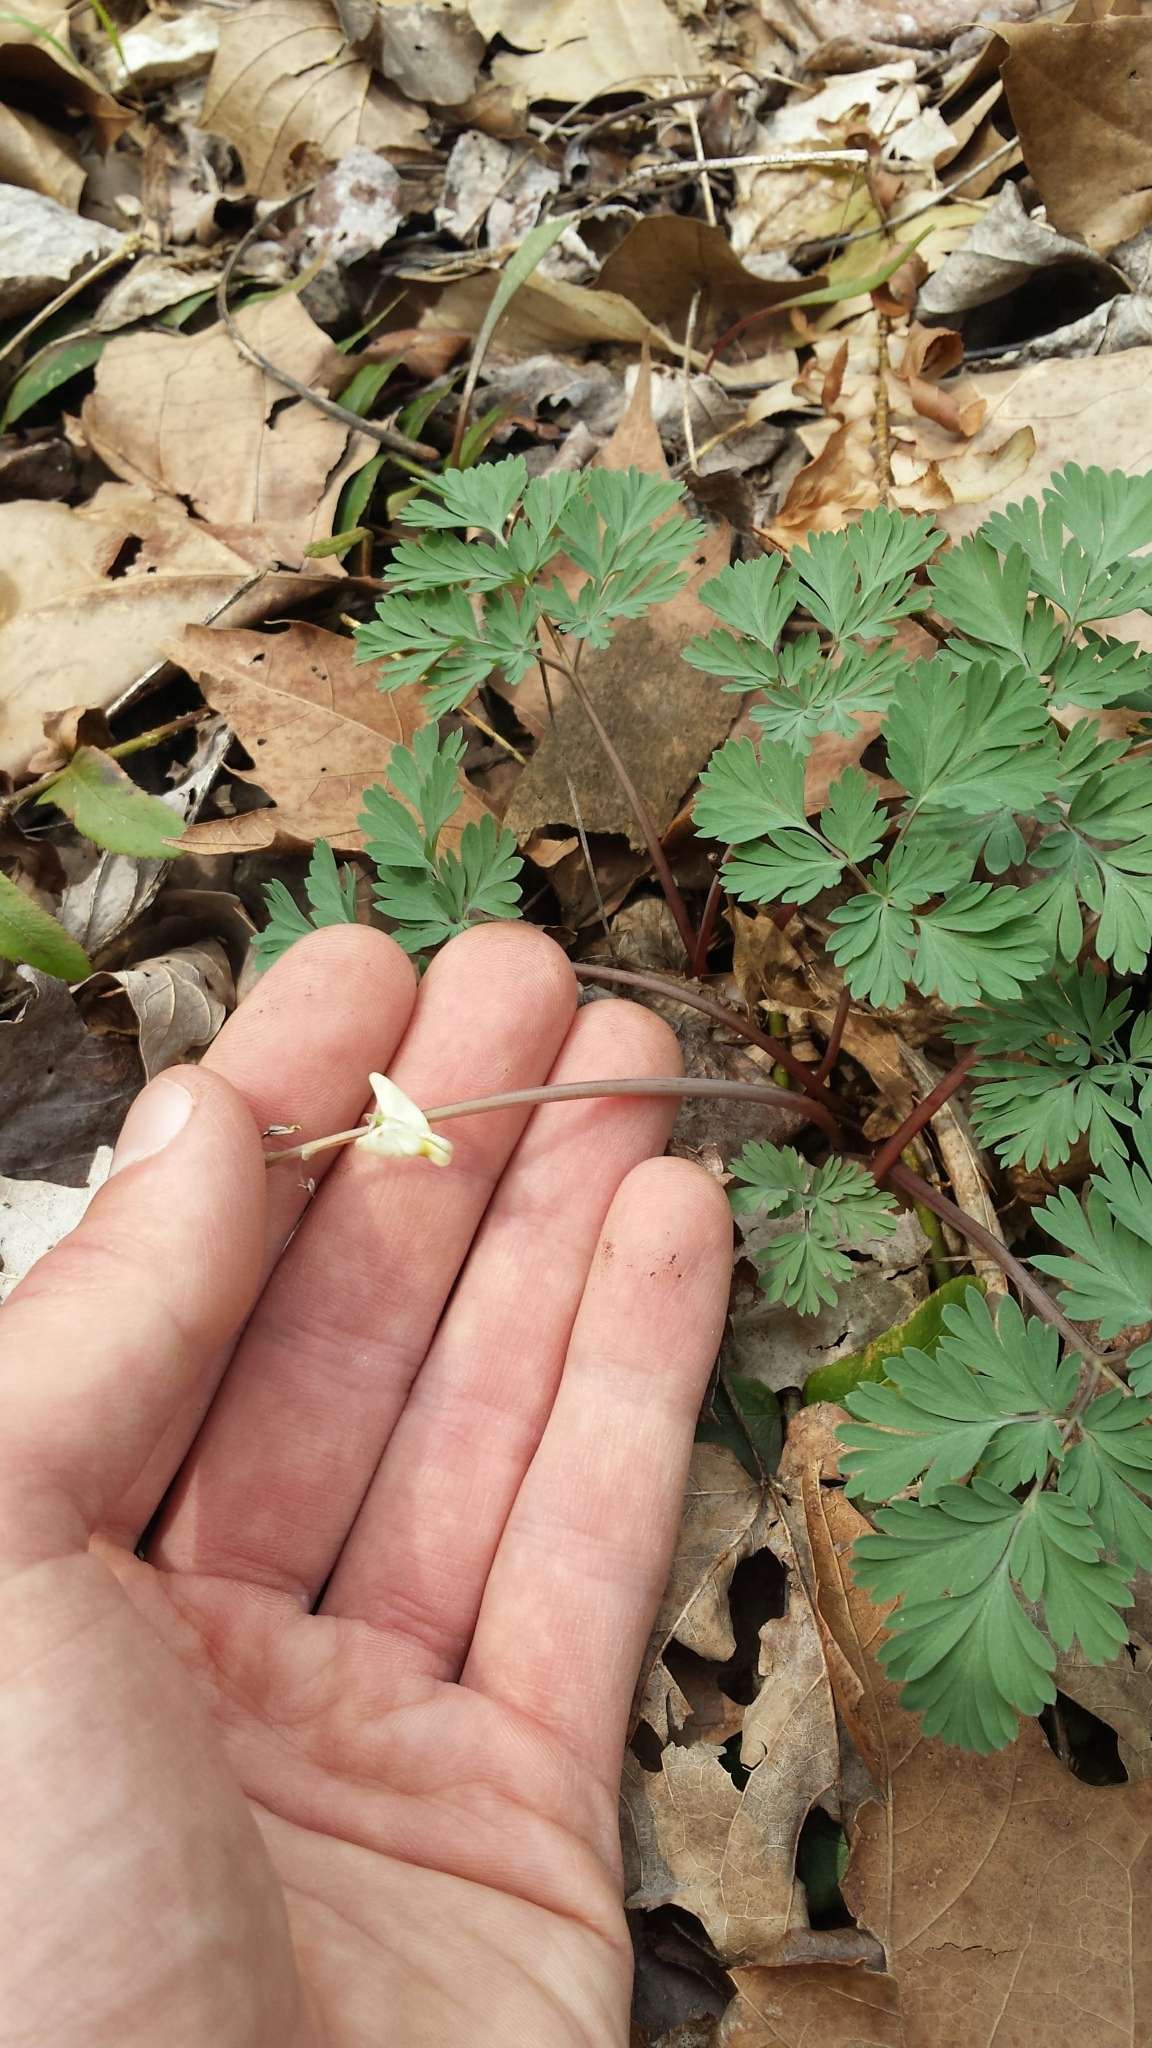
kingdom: Plantae
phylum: Tracheophyta
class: Magnoliopsida
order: Ranunculales
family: Papaveraceae
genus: Dicentra
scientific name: Dicentra cucullaria
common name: Dutchman's breeches
